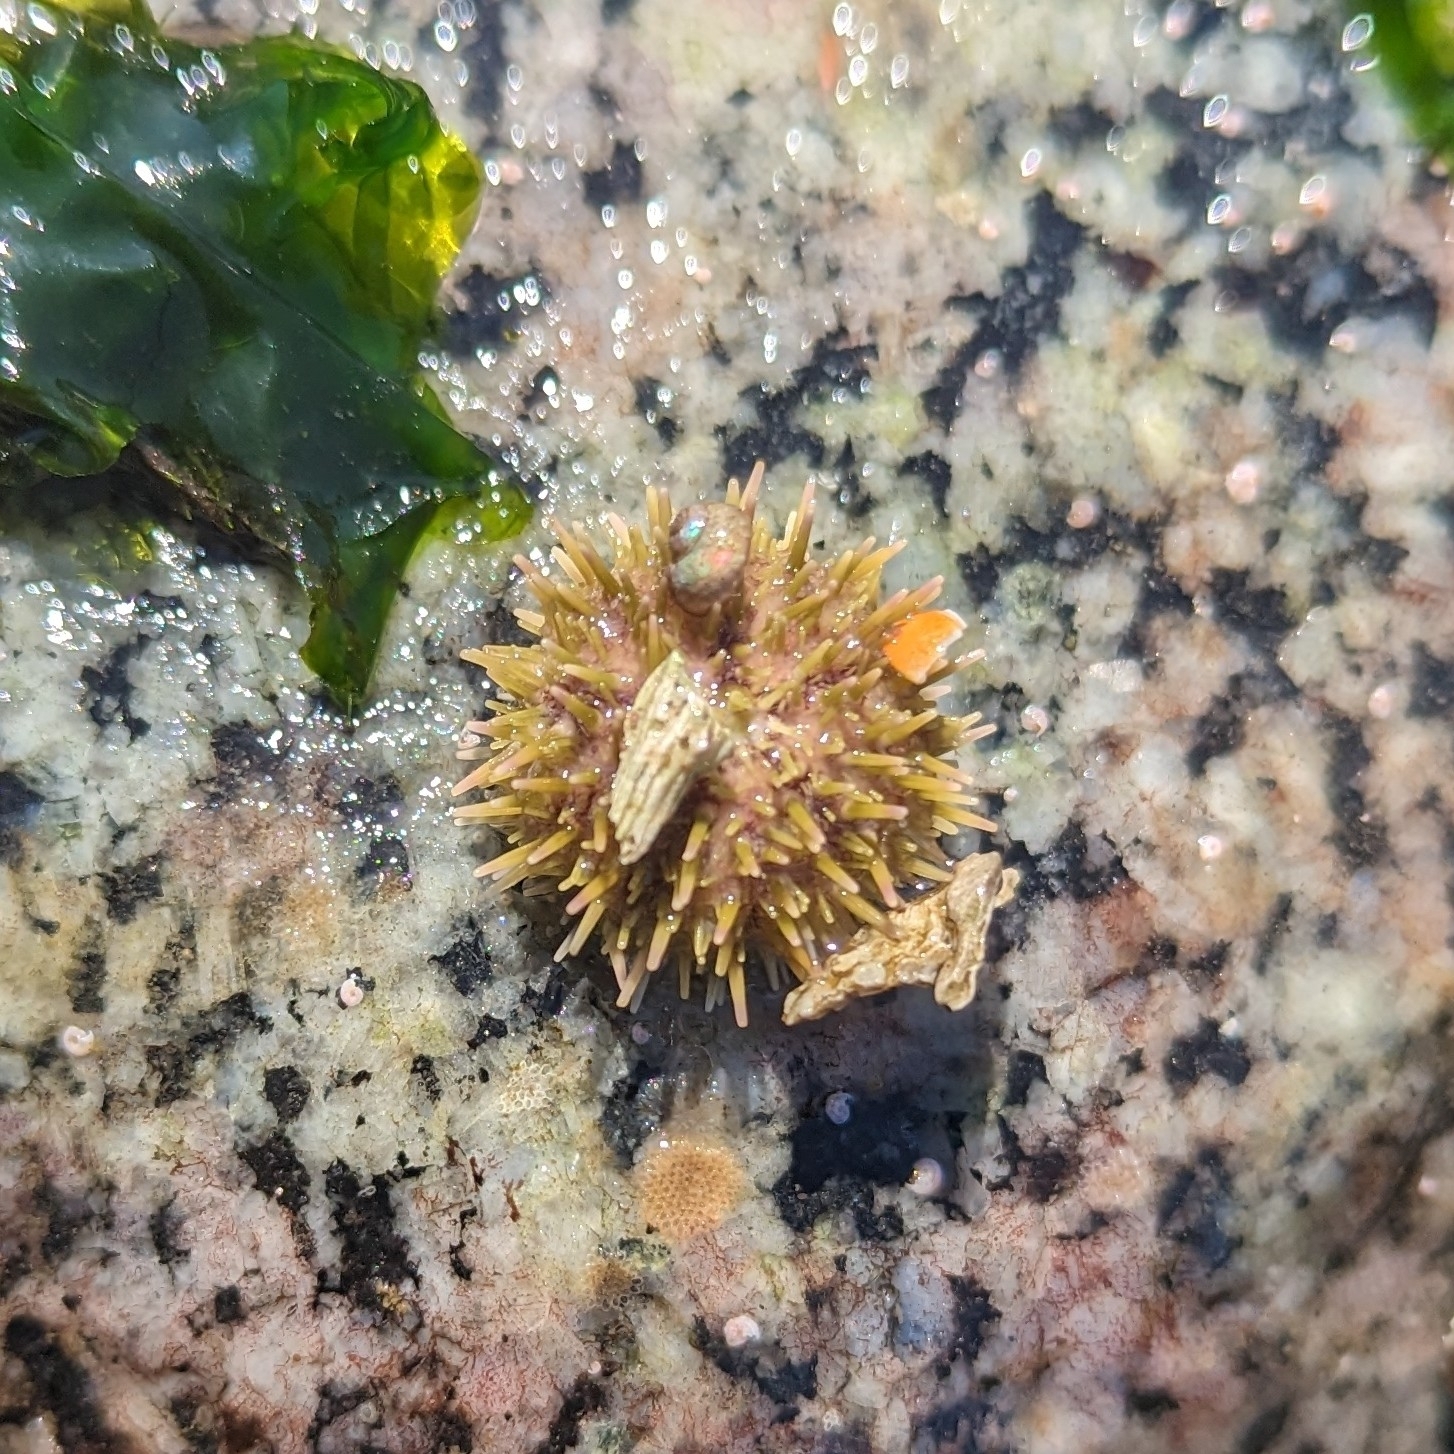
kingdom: Animalia
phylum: Echinodermata
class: Echinoidea
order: Camarodonta
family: Strongylocentrotidae
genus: Strongylocentrotus
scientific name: Strongylocentrotus droebachiensis
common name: Northern sea urchin
